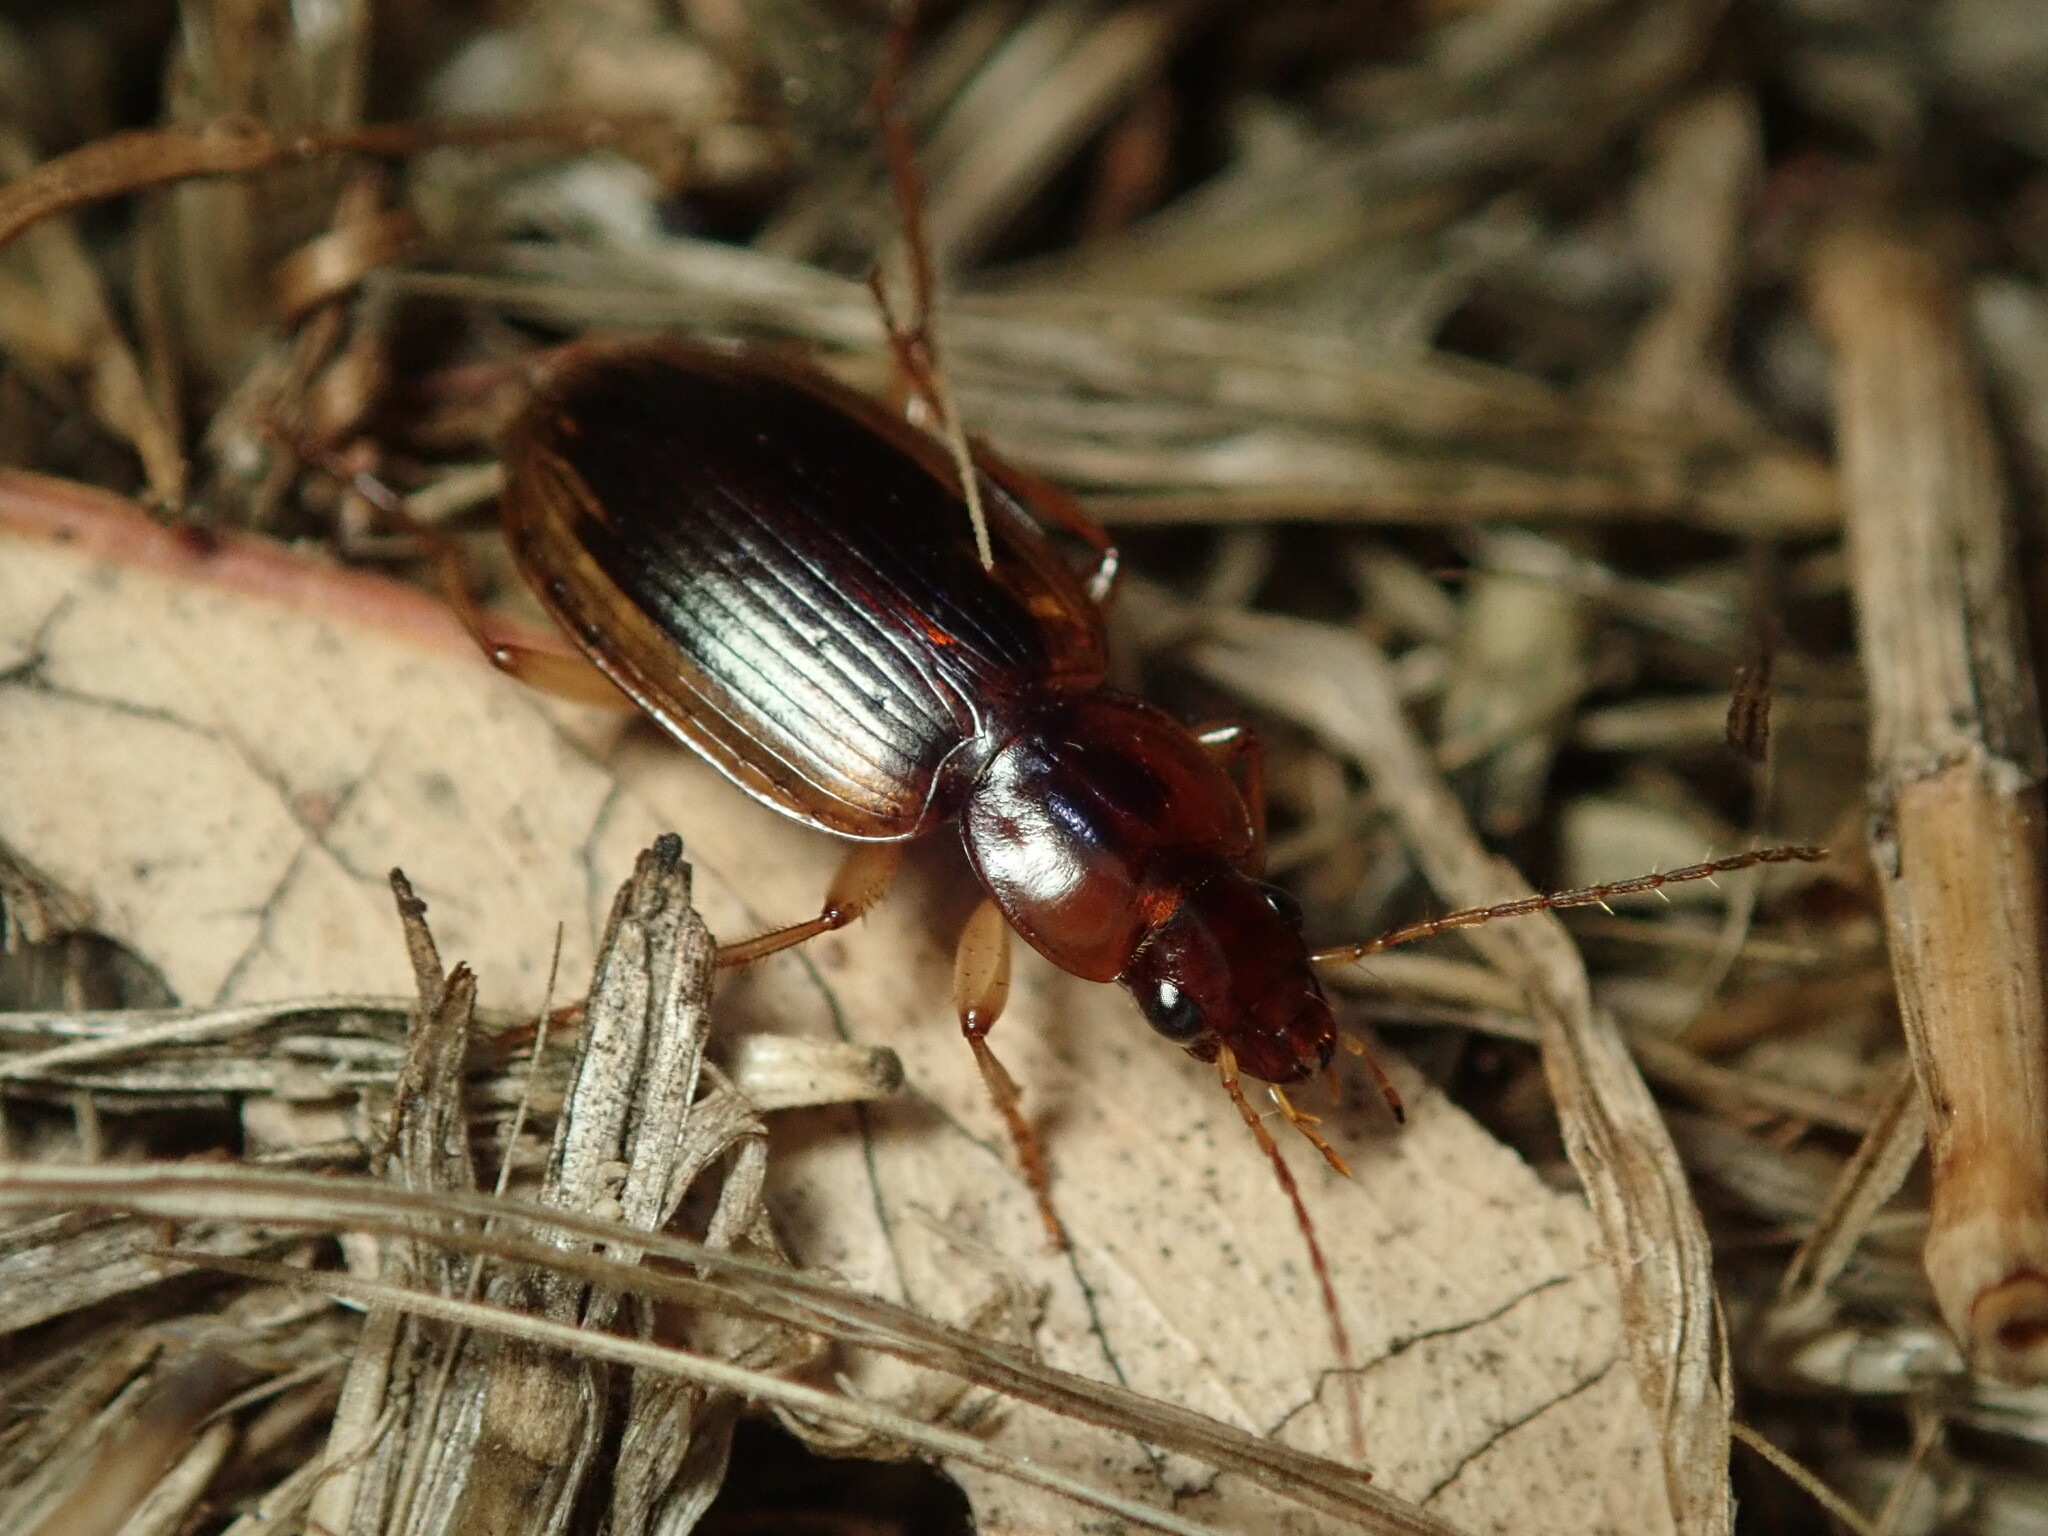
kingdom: Animalia
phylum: Arthropoda
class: Insecta
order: Coleoptera
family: Carabidae
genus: Tanystoma
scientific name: Tanystoma maculicolle
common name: Tule beetle
